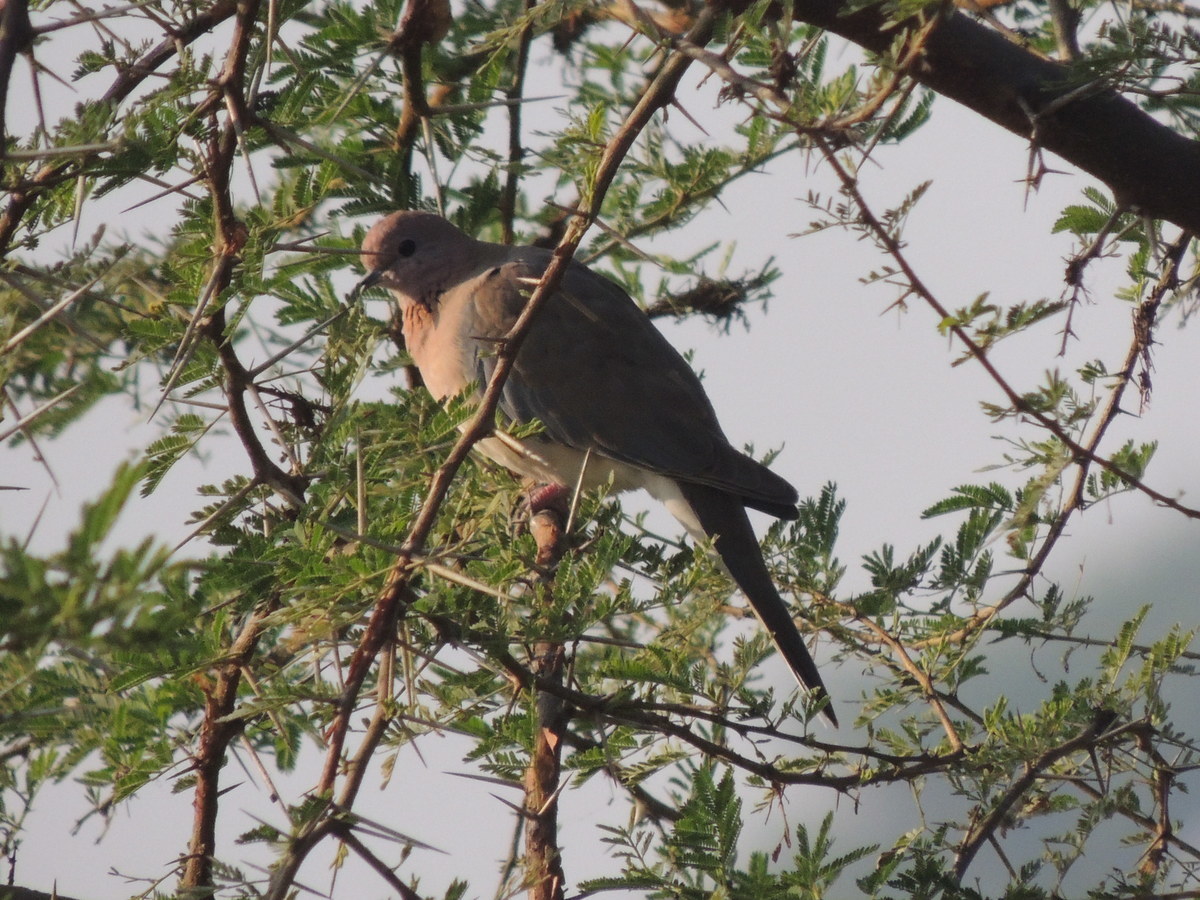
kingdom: Animalia
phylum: Chordata
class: Aves
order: Columbiformes
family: Columbidae
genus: Spilopelia
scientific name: Spilopelia senegalensis
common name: Laughing dove
